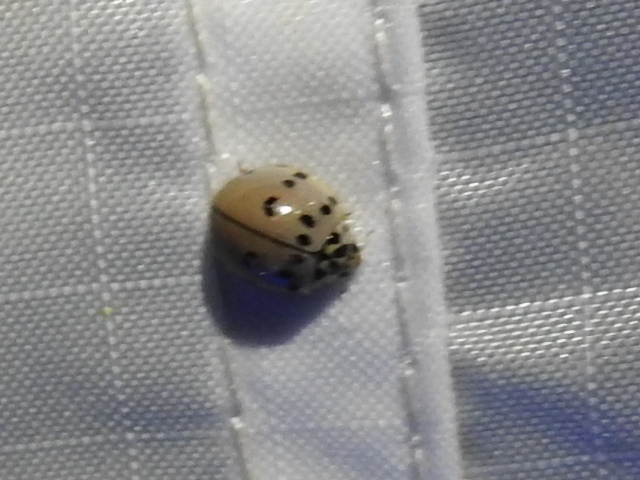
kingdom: Animalia
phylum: Arthropoda
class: Insecta
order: Coleoptera
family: Coccinellidae
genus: Olla
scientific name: Olla v-nigrum
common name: Ashy gray lady beetle
